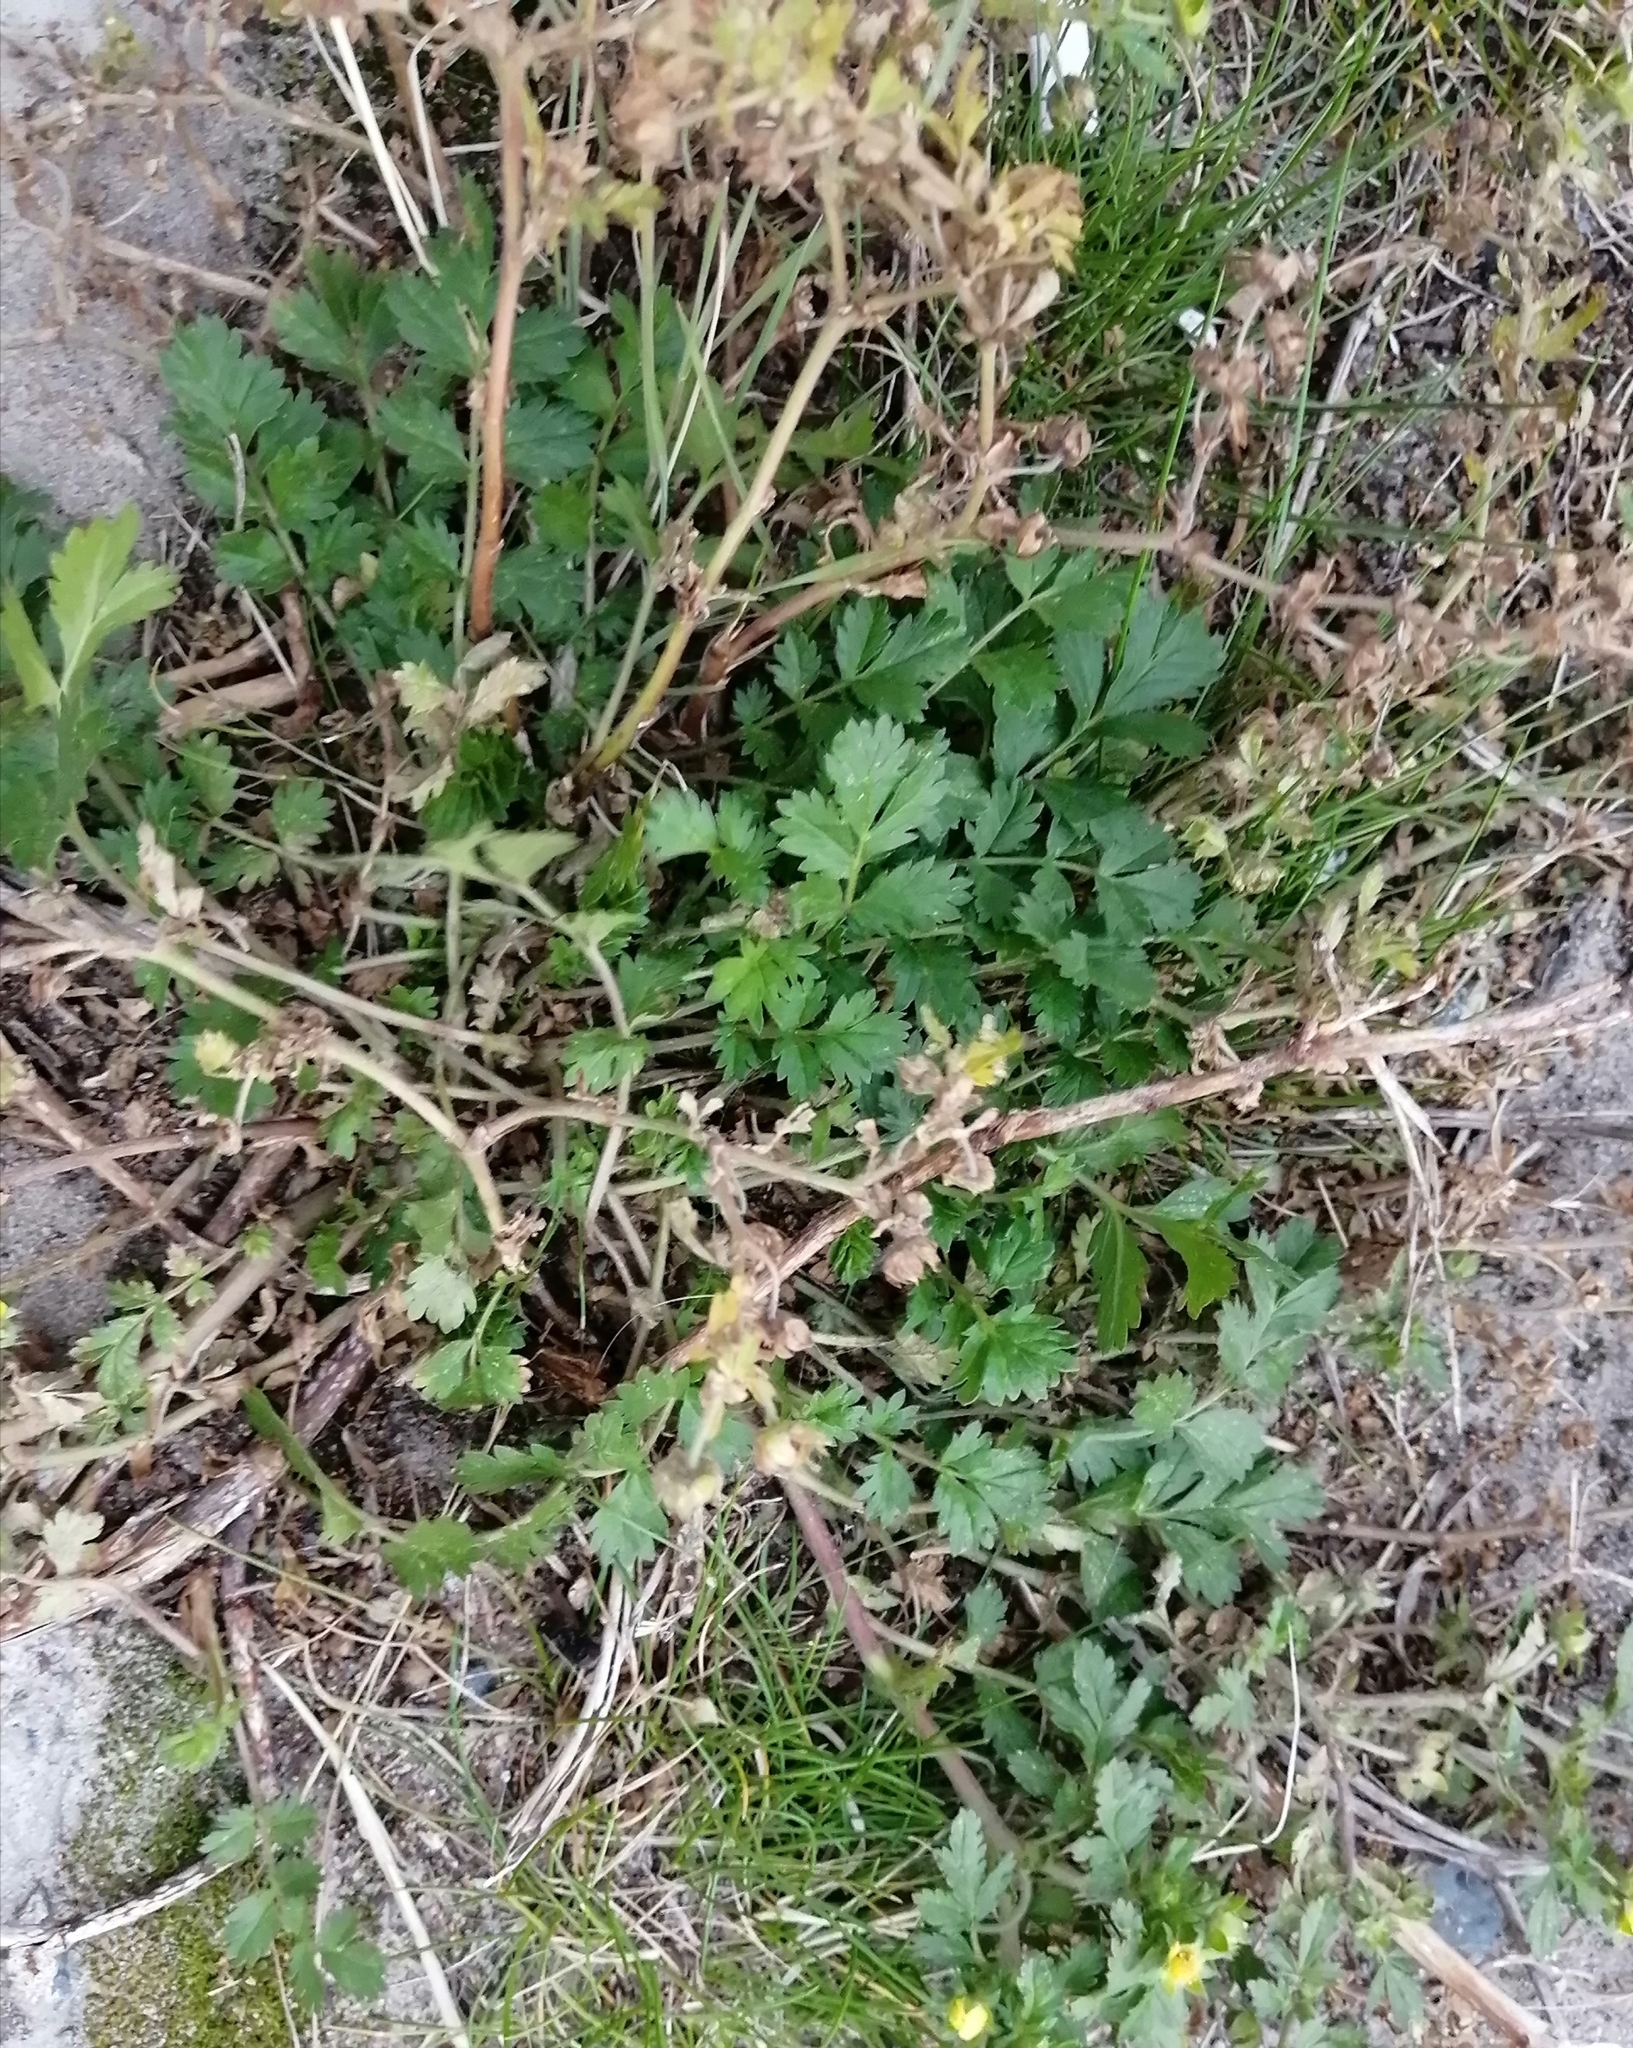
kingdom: Plantae
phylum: Tracheophyta
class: Magnoliopsida
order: Rosales
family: Rosaceae
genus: Potentilla
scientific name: Potentilla supina
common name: Prostrate cinquefoil
